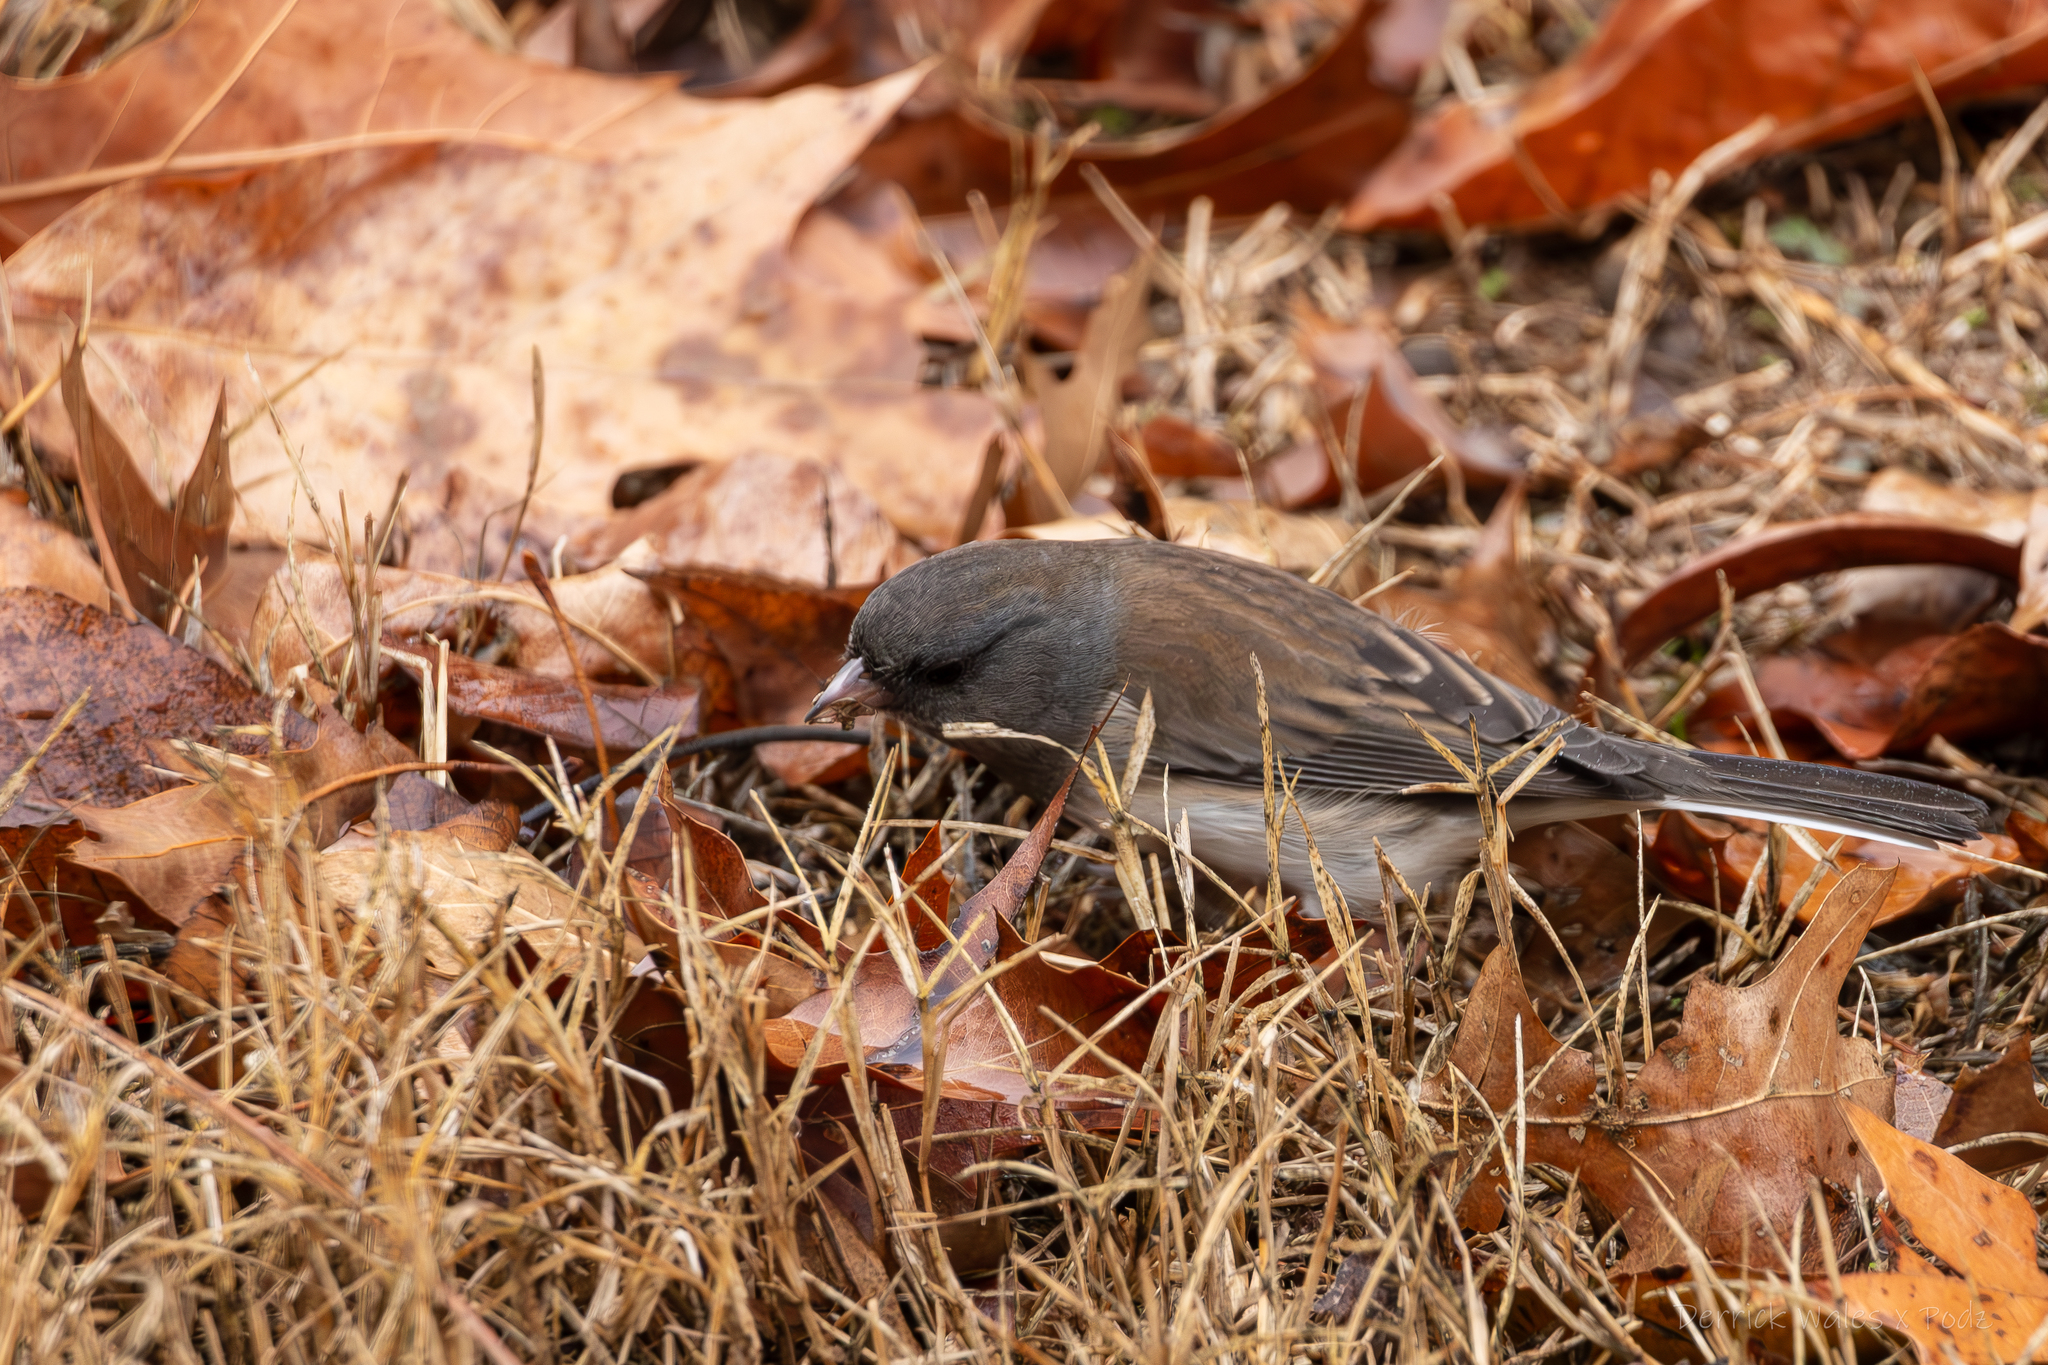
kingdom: Animalia
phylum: Chordata
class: Aves
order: Passeriformes
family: Passerellidae
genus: Junco
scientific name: Junco hyemalis
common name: Dark-eyed junco
